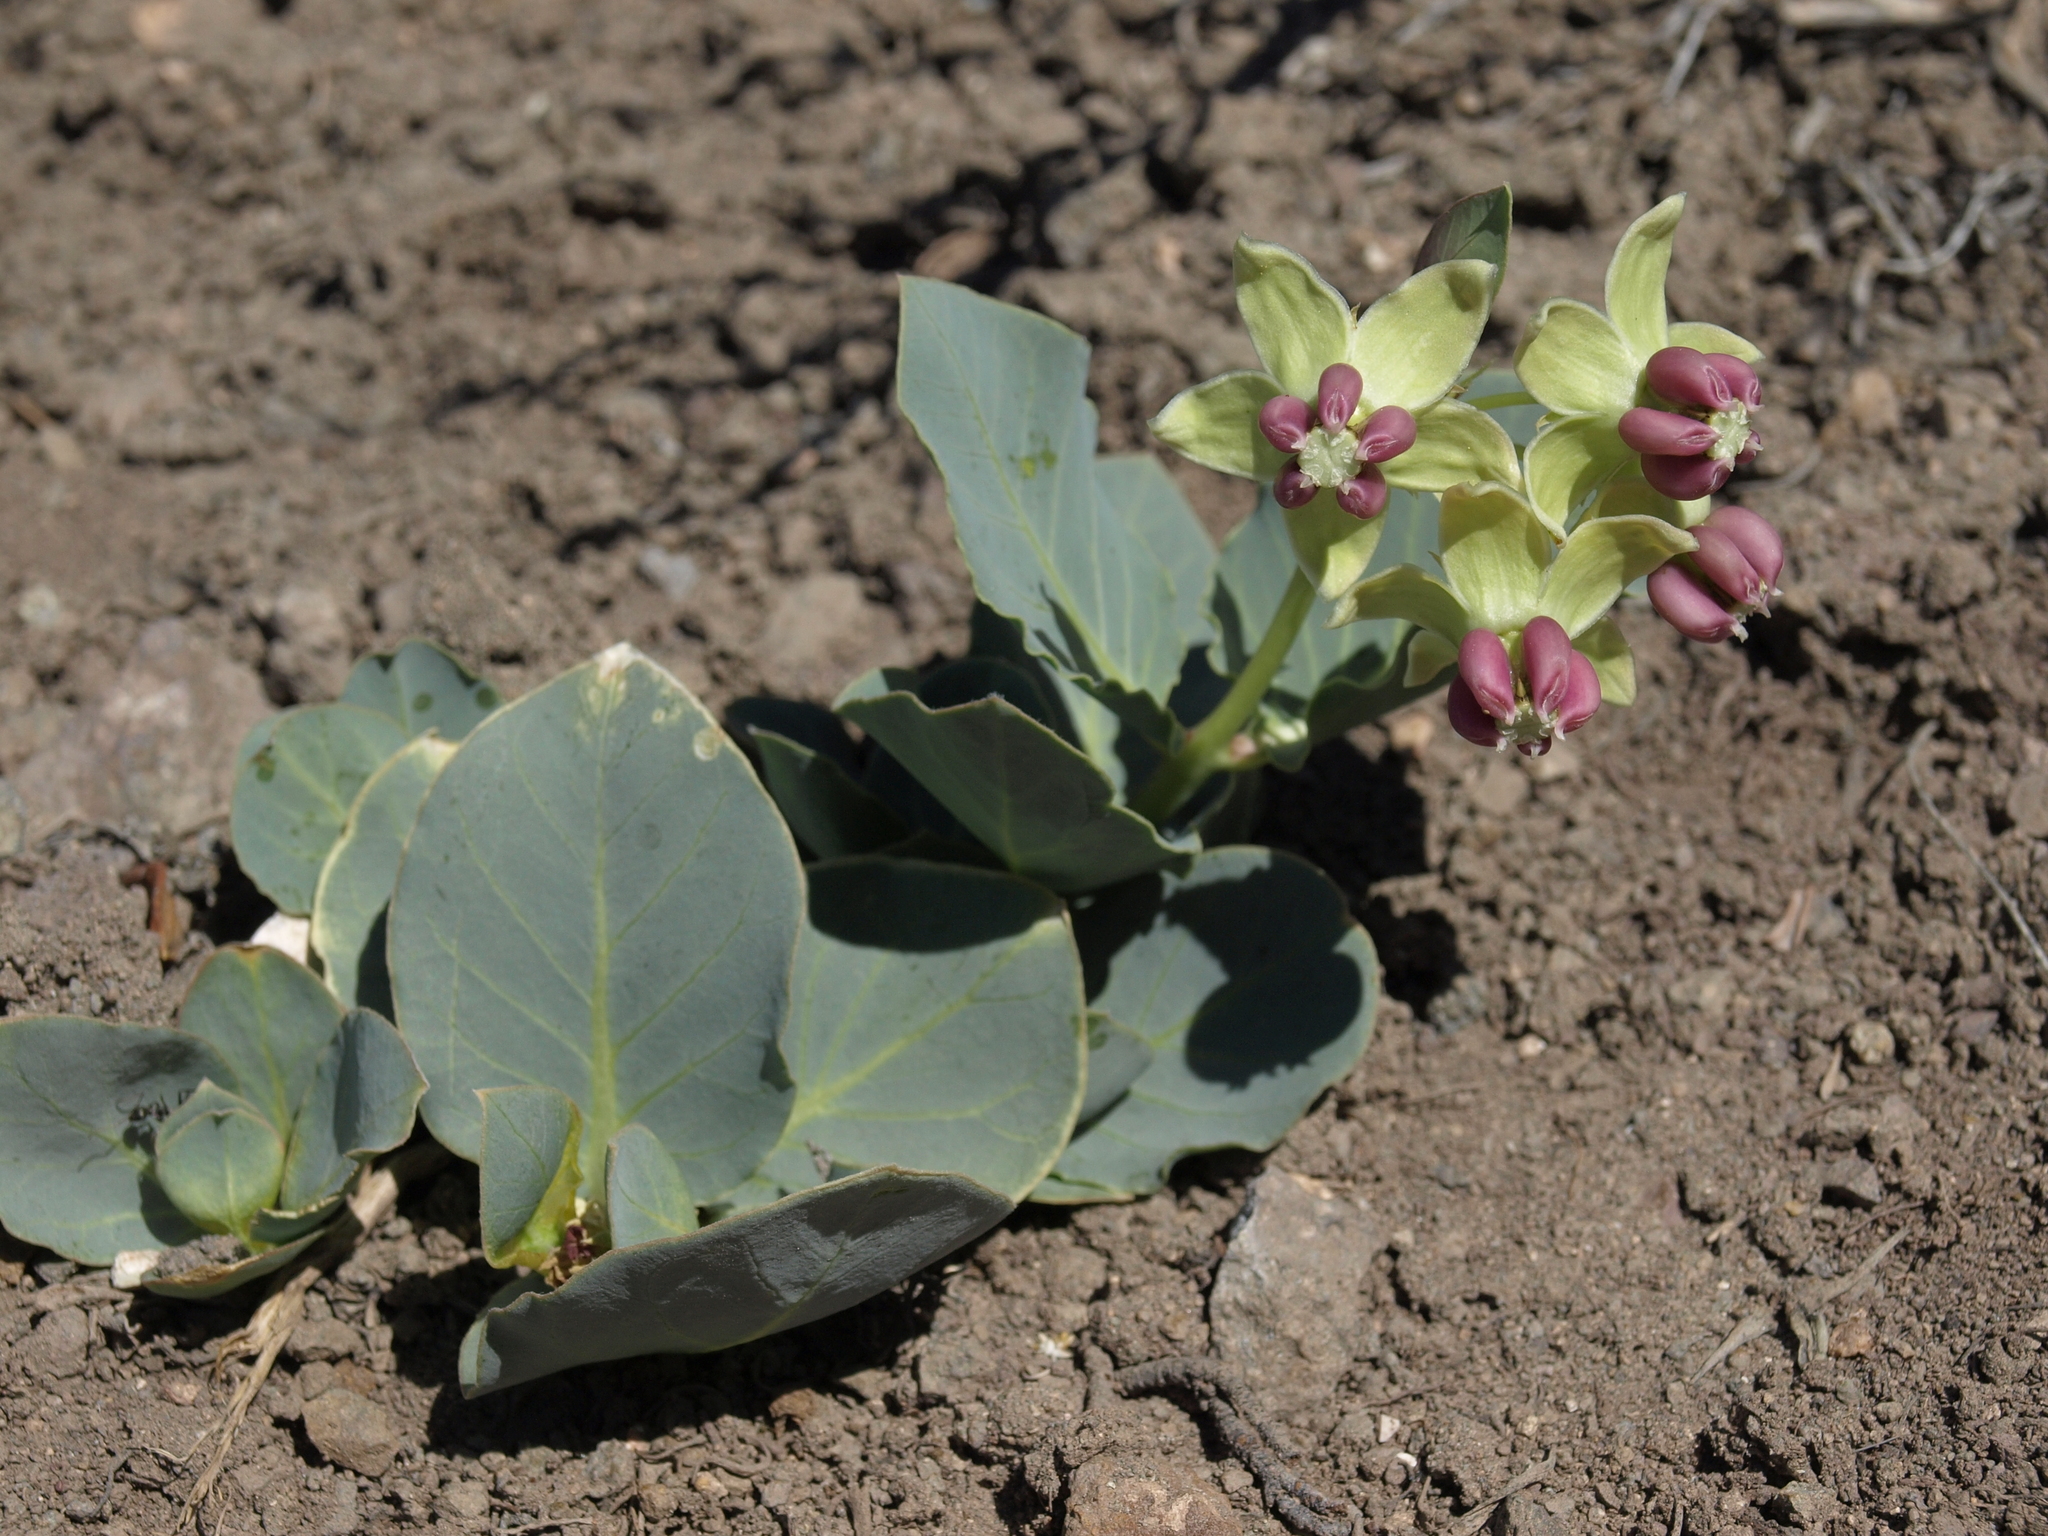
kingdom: Plantae
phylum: Tracheophyta
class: Magnoliopsida
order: Gentianales
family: Apocynaceae
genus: Asclepias
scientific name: Asclepias cryptoceras
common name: Humboldt mountains milkweed
